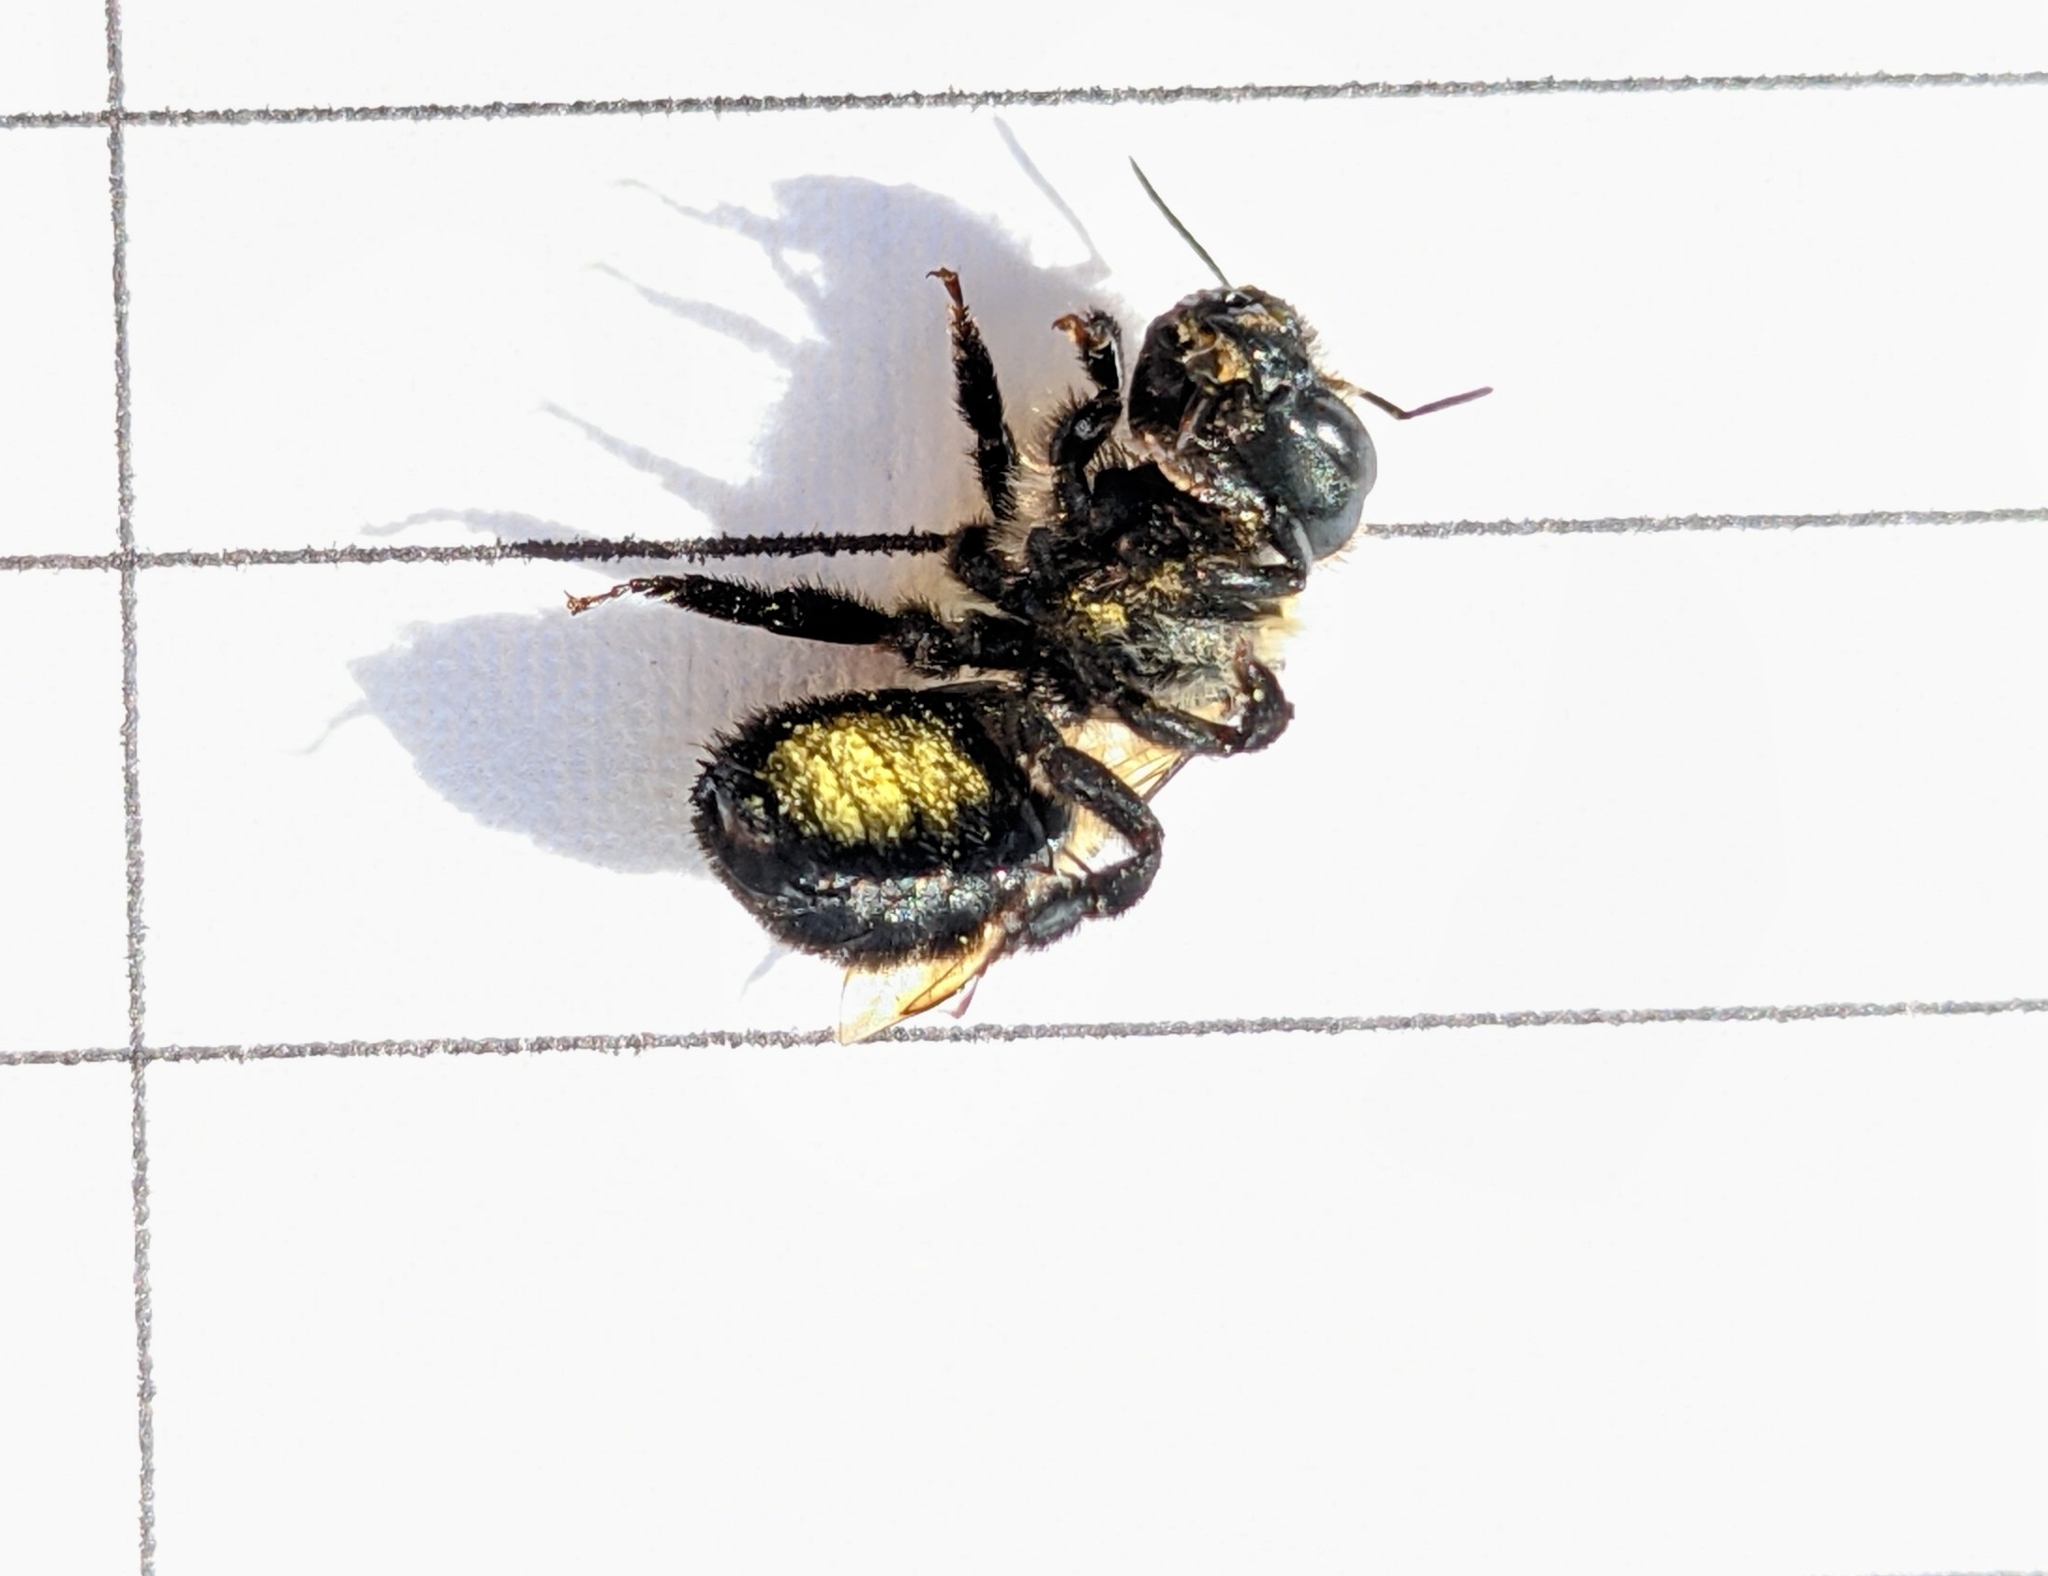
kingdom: Animalia
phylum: Arthropoda
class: Insecta
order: Hymenoptera
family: Megachilidae
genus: Osmia
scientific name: Osmia bucephala
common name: Bufflehead mason bee
